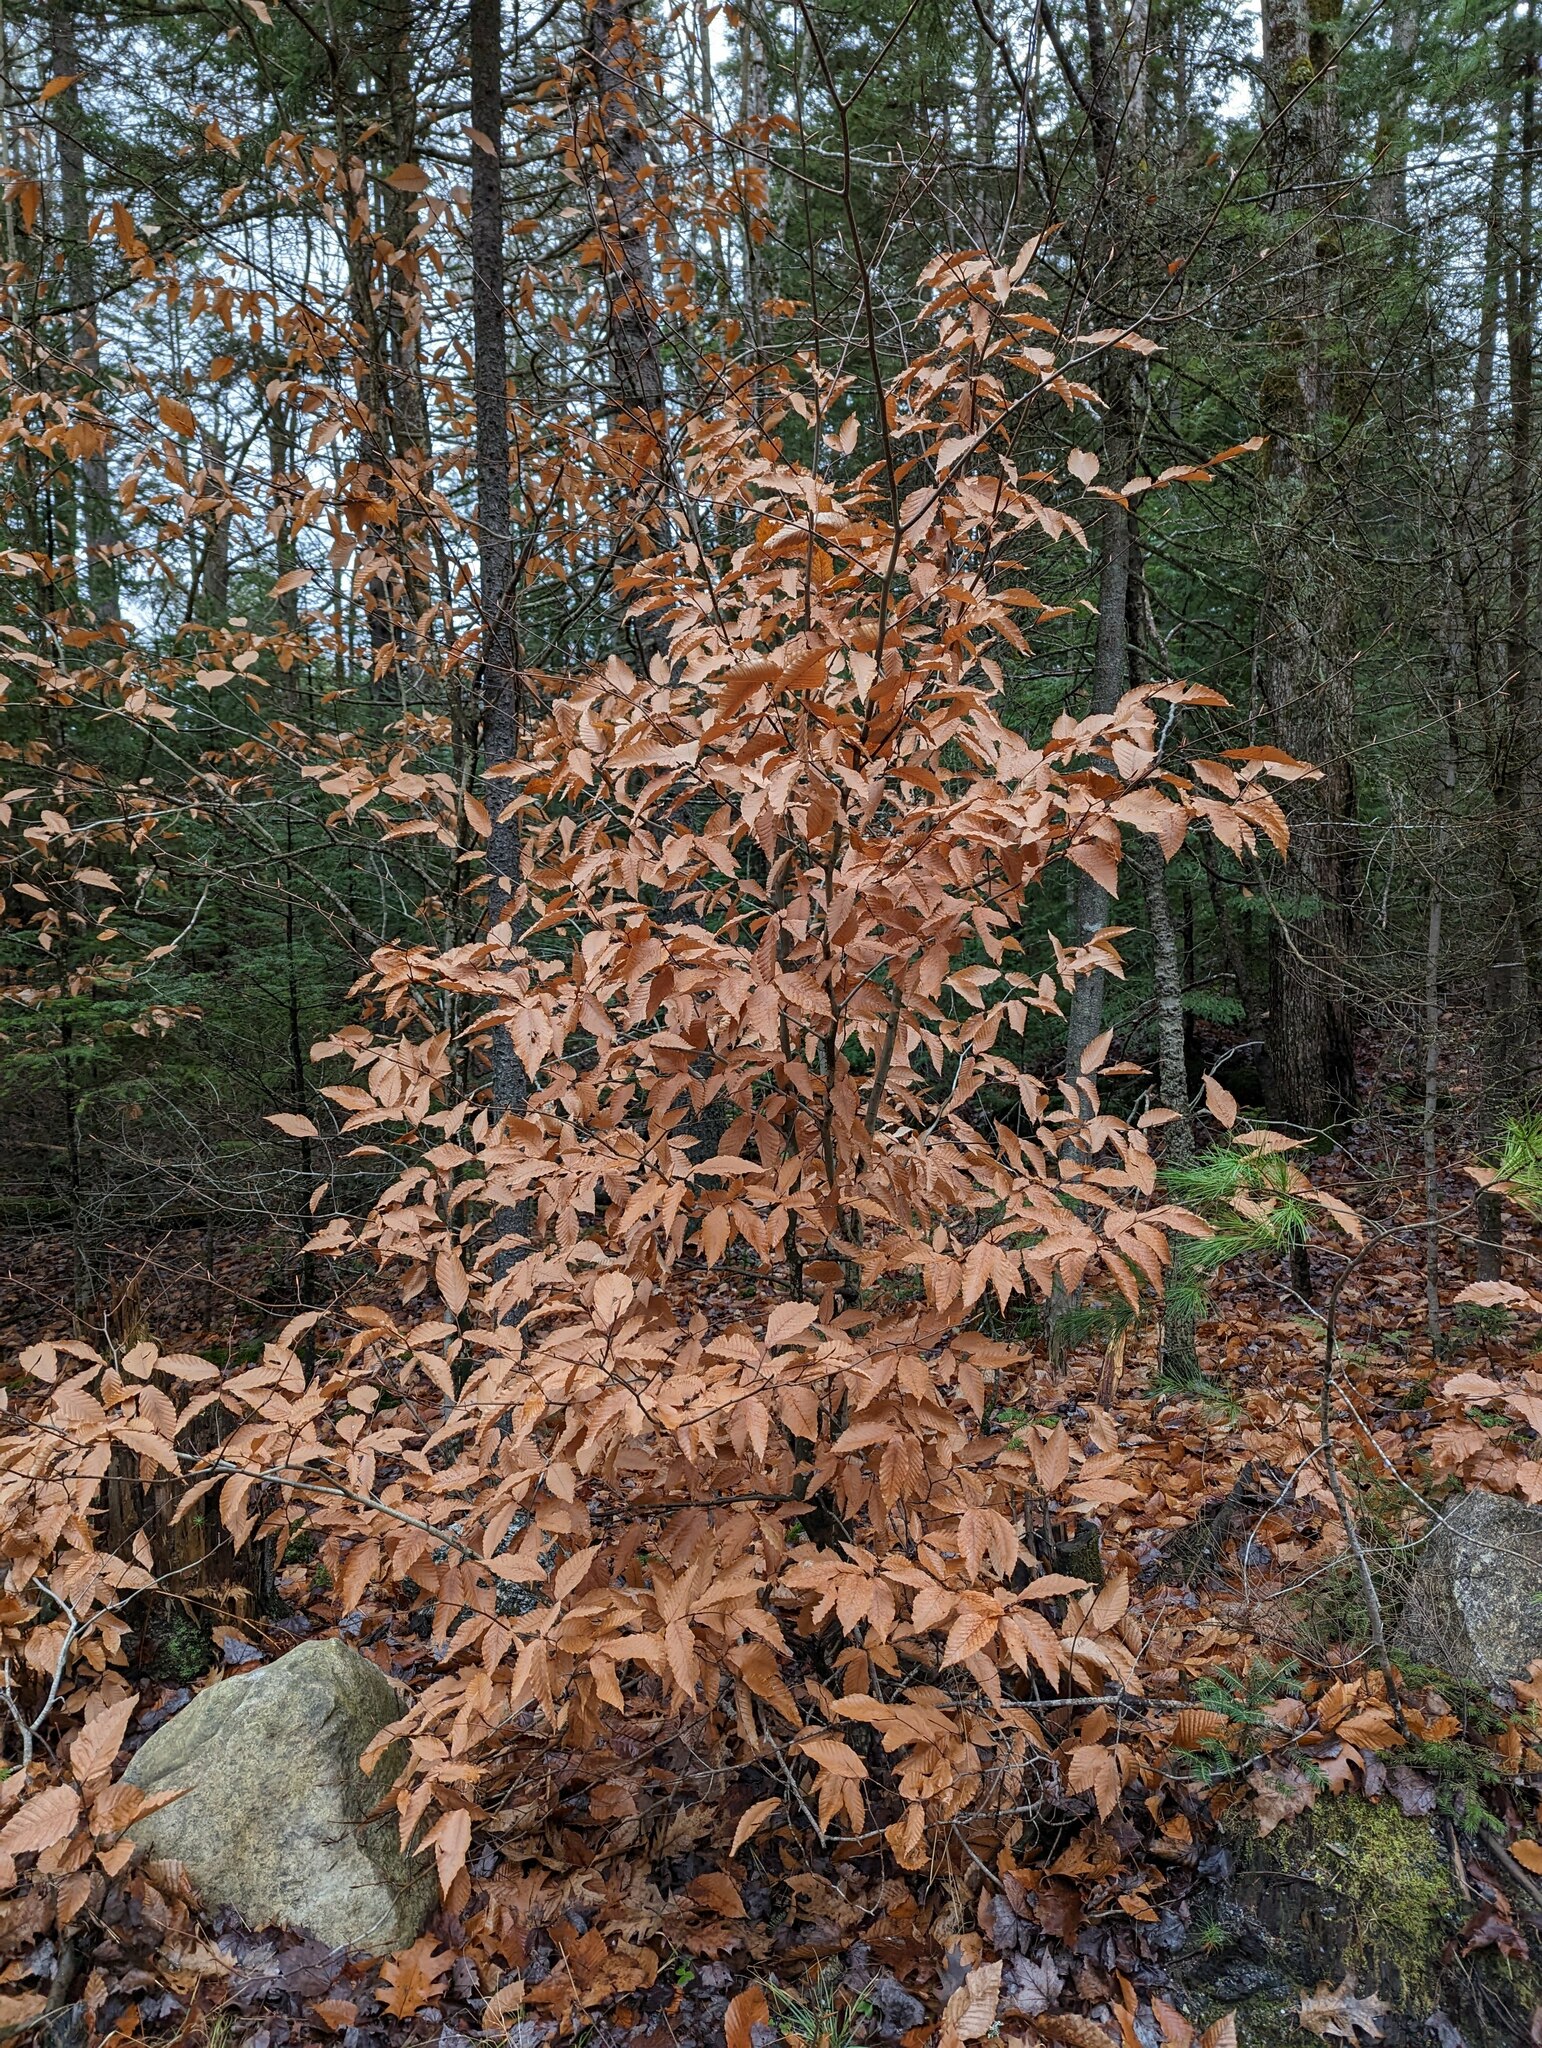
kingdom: Plantae
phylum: Tracheophyta
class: Magnoliopsida
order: Fagales
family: Fagaceae
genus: Fagus
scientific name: Fagus grandifolia
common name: American beech
